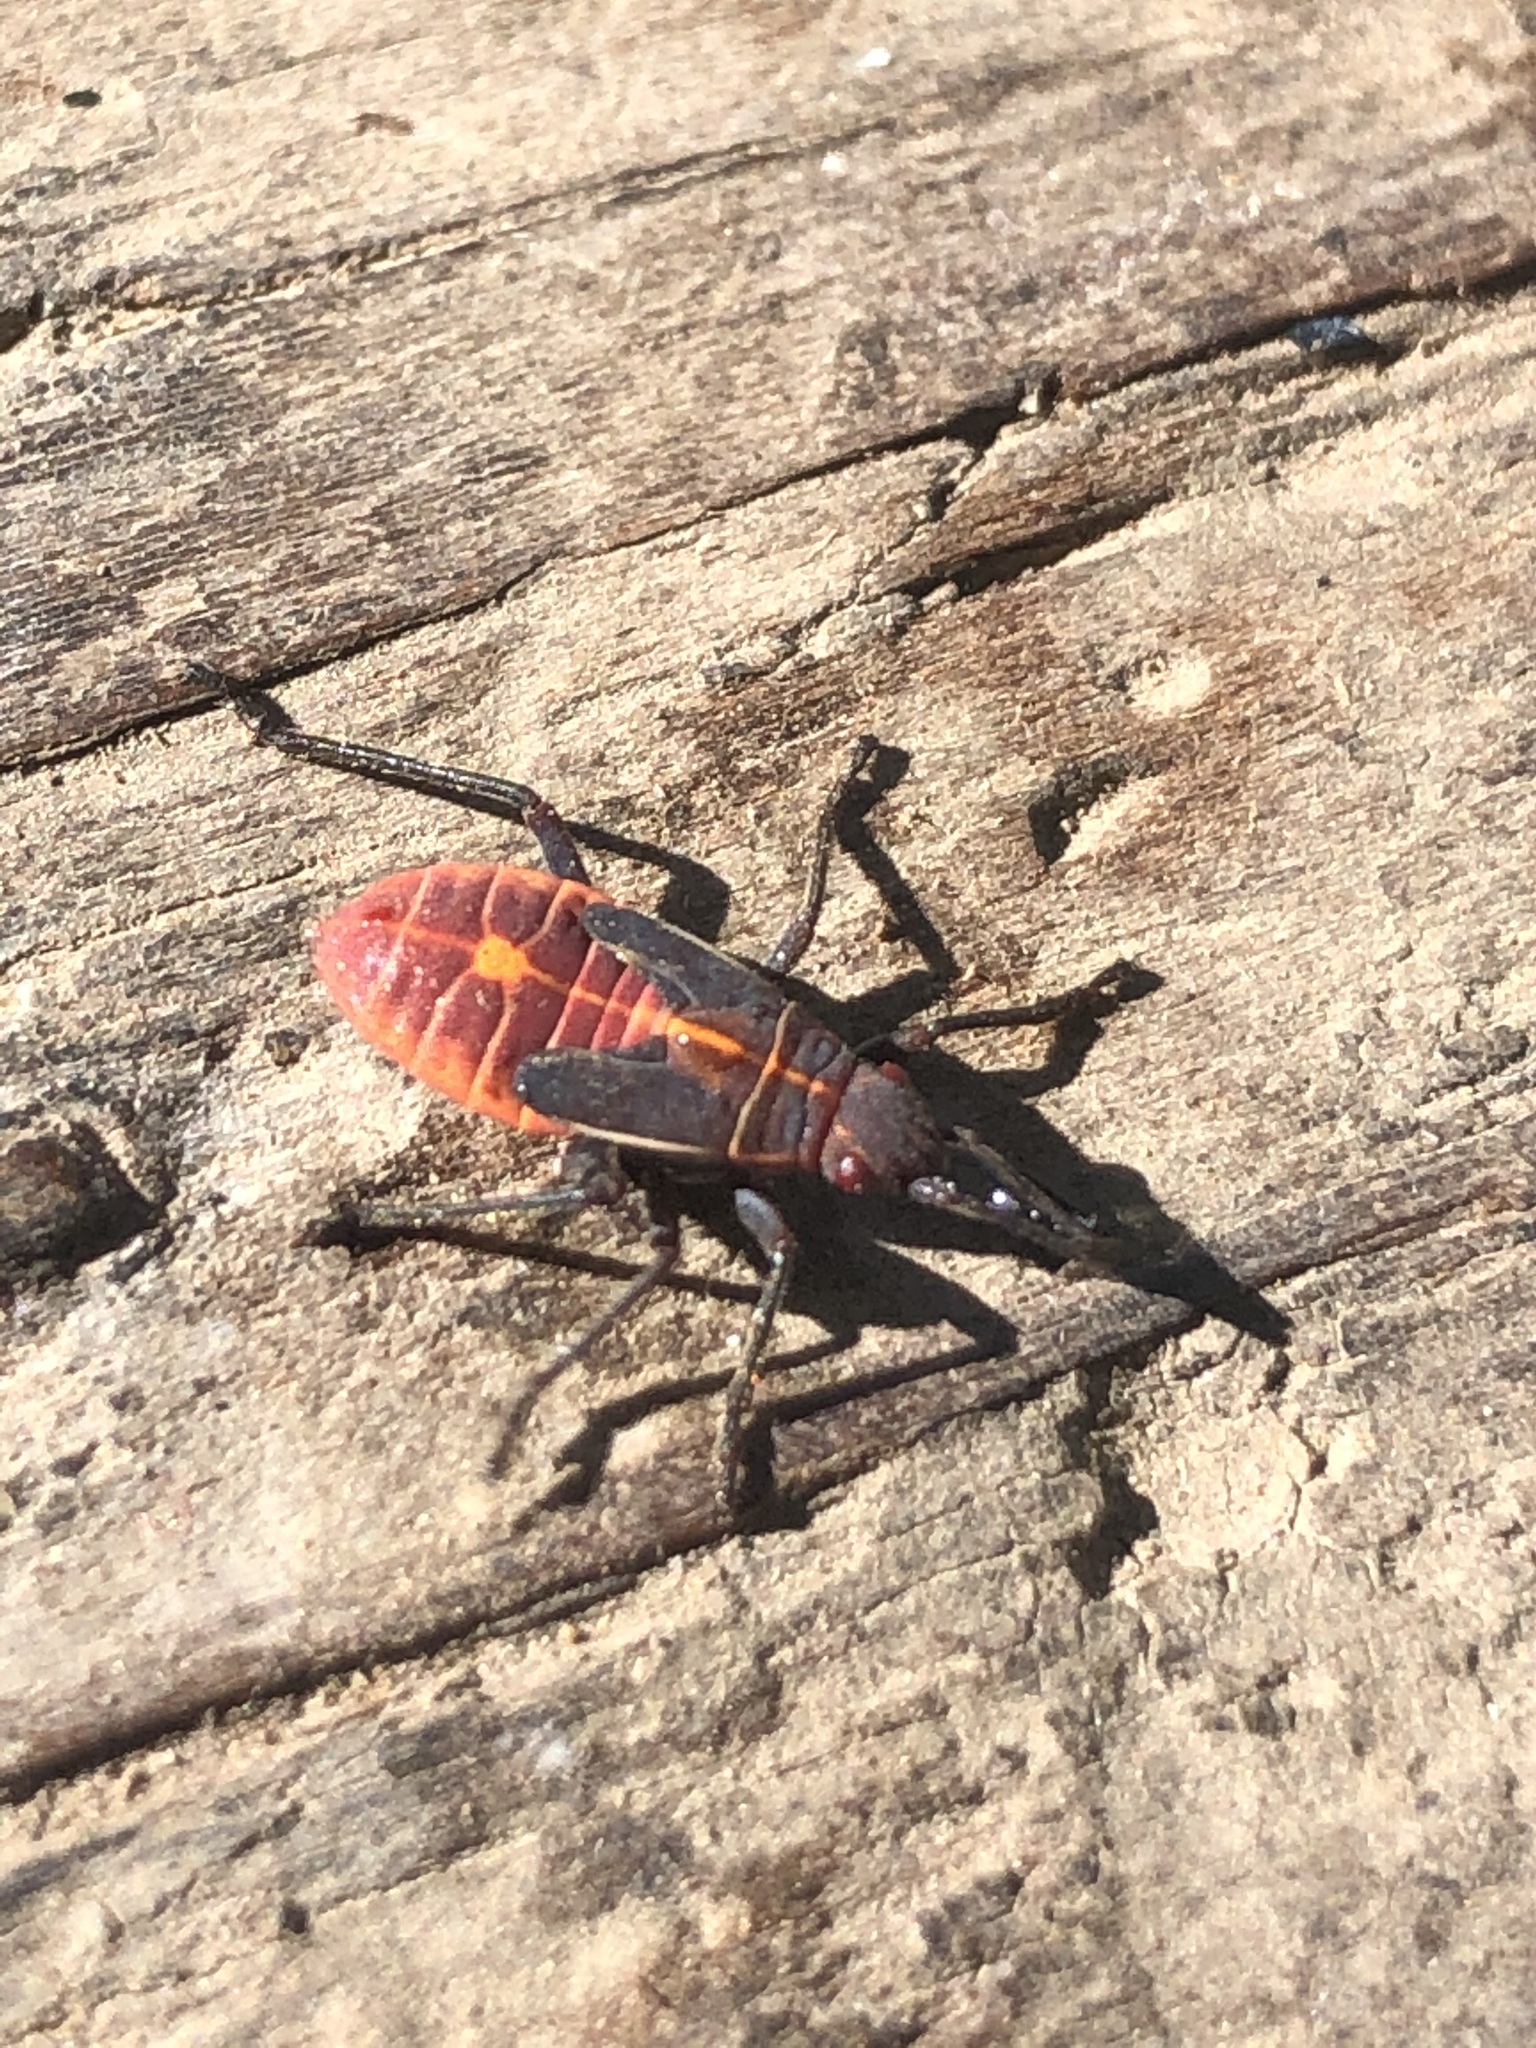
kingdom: Animalia
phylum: Arthropoda
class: Insecta
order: Hemiptera
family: Rhopalidae
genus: Boisea
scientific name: Boisea rubrolineata
